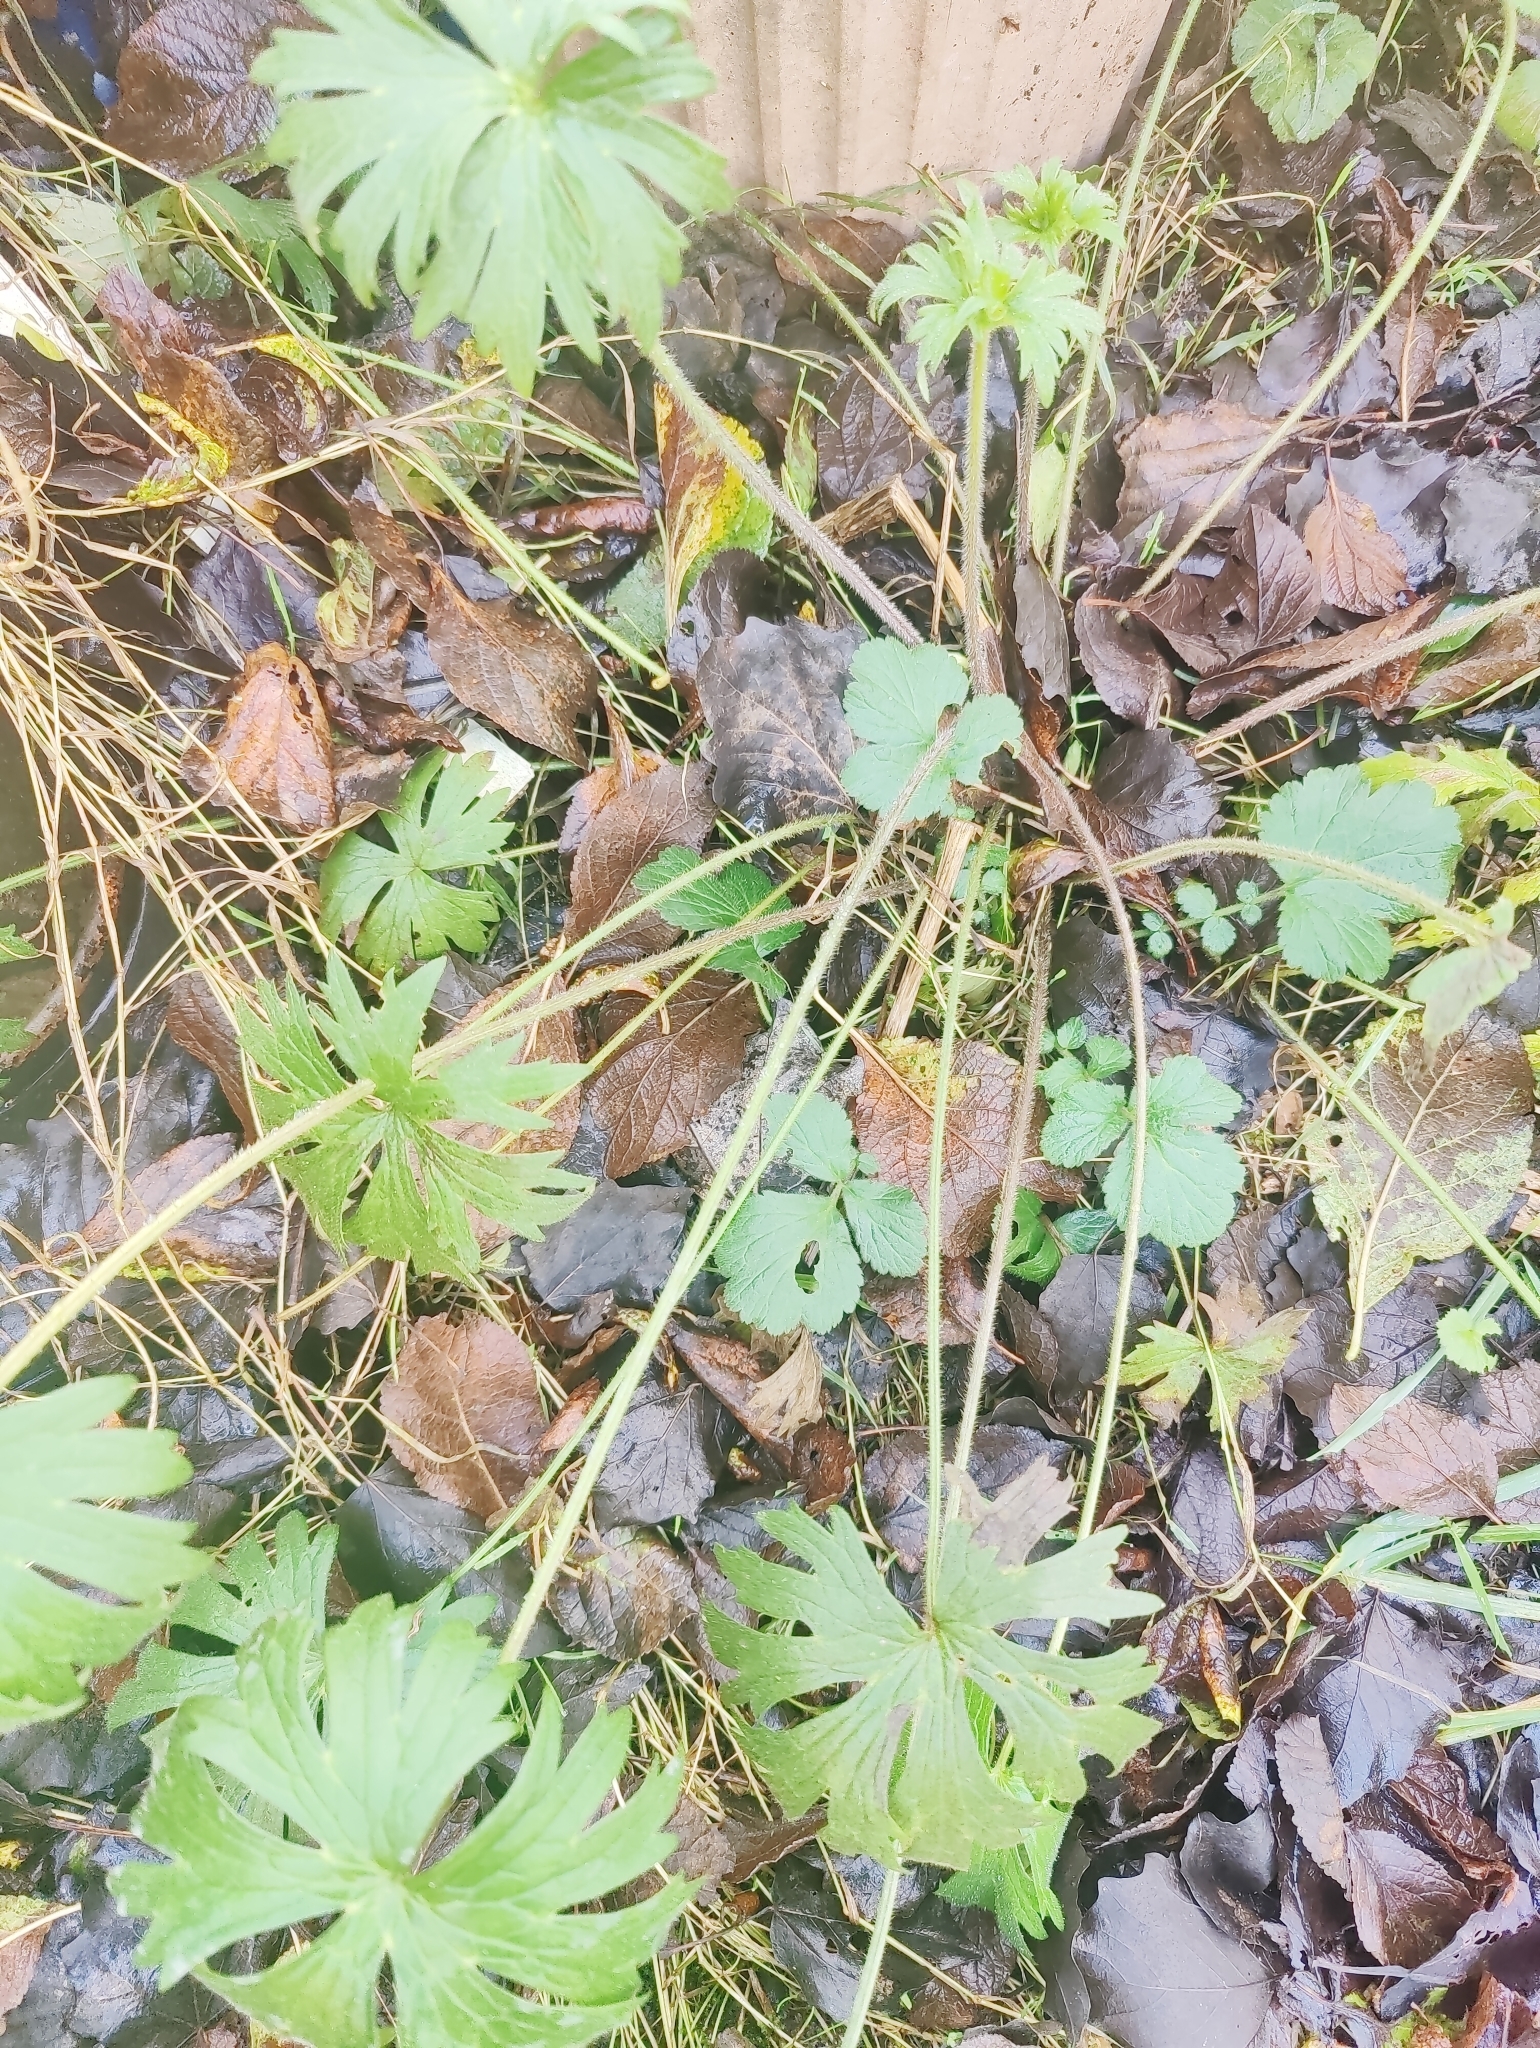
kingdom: Plantae
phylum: Tracheophyta
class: Magnoliopsida
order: Ranunculales
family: Ranunculaceae
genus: Ranunculus
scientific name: Ranunculus acris
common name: Meadow buttercup
